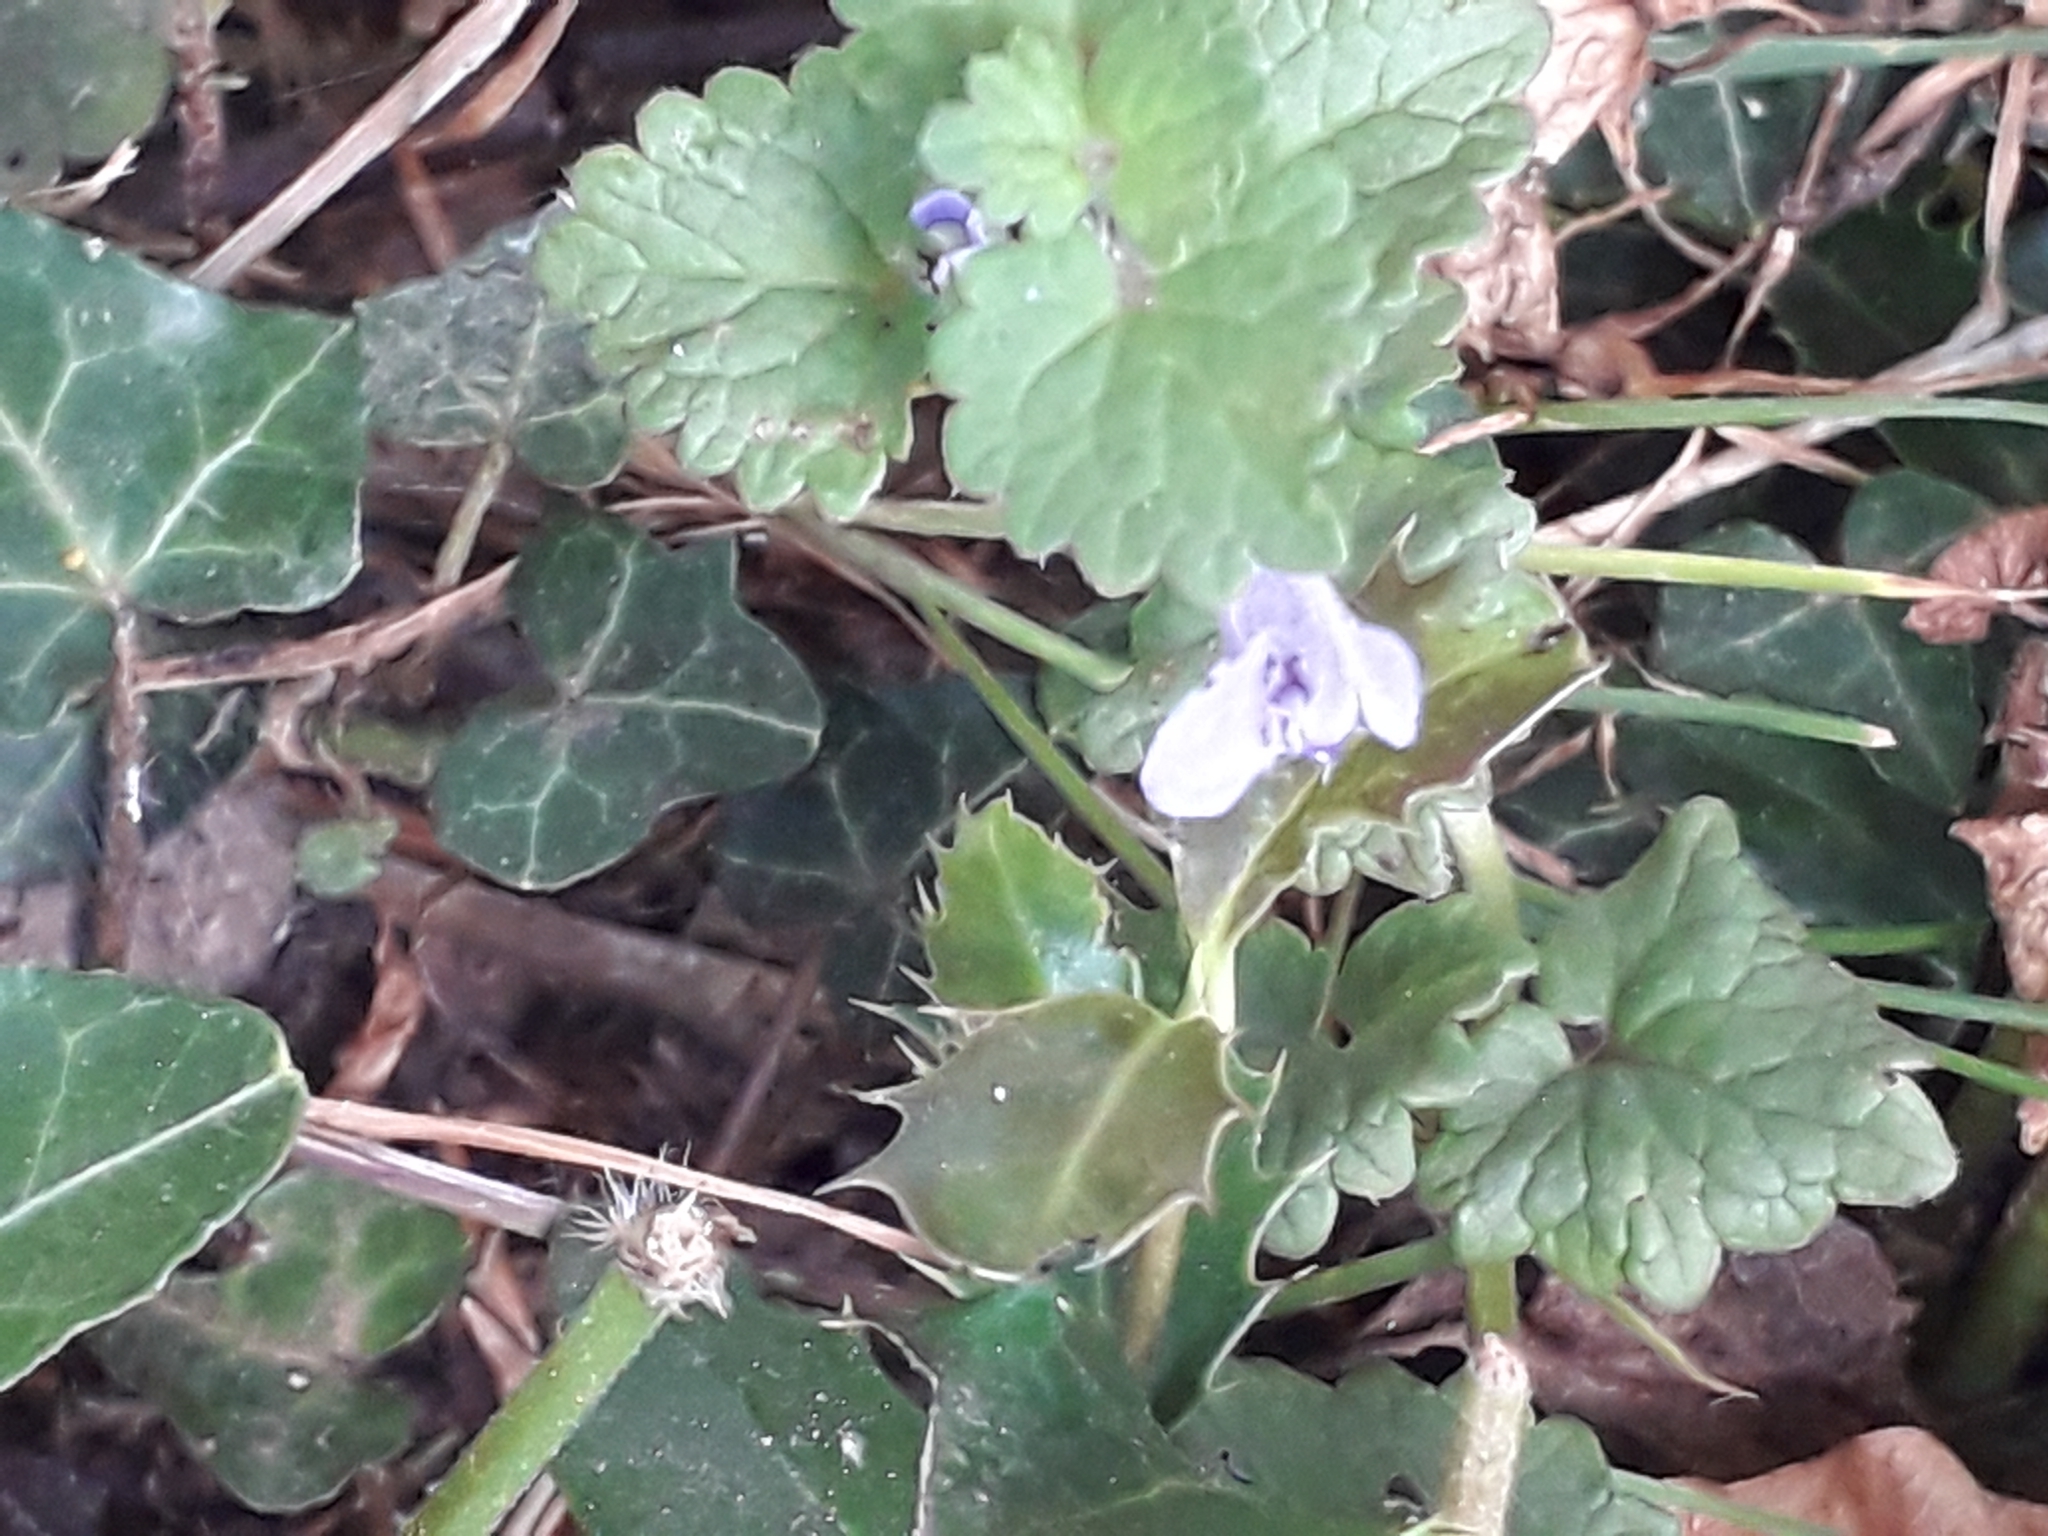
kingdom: Plantae
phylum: Tracheophyta
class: Magnoliopsida
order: Lamiales
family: Lamiaceae
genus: Glechoma
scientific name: Glechoma hederacea
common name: Ground ivy
